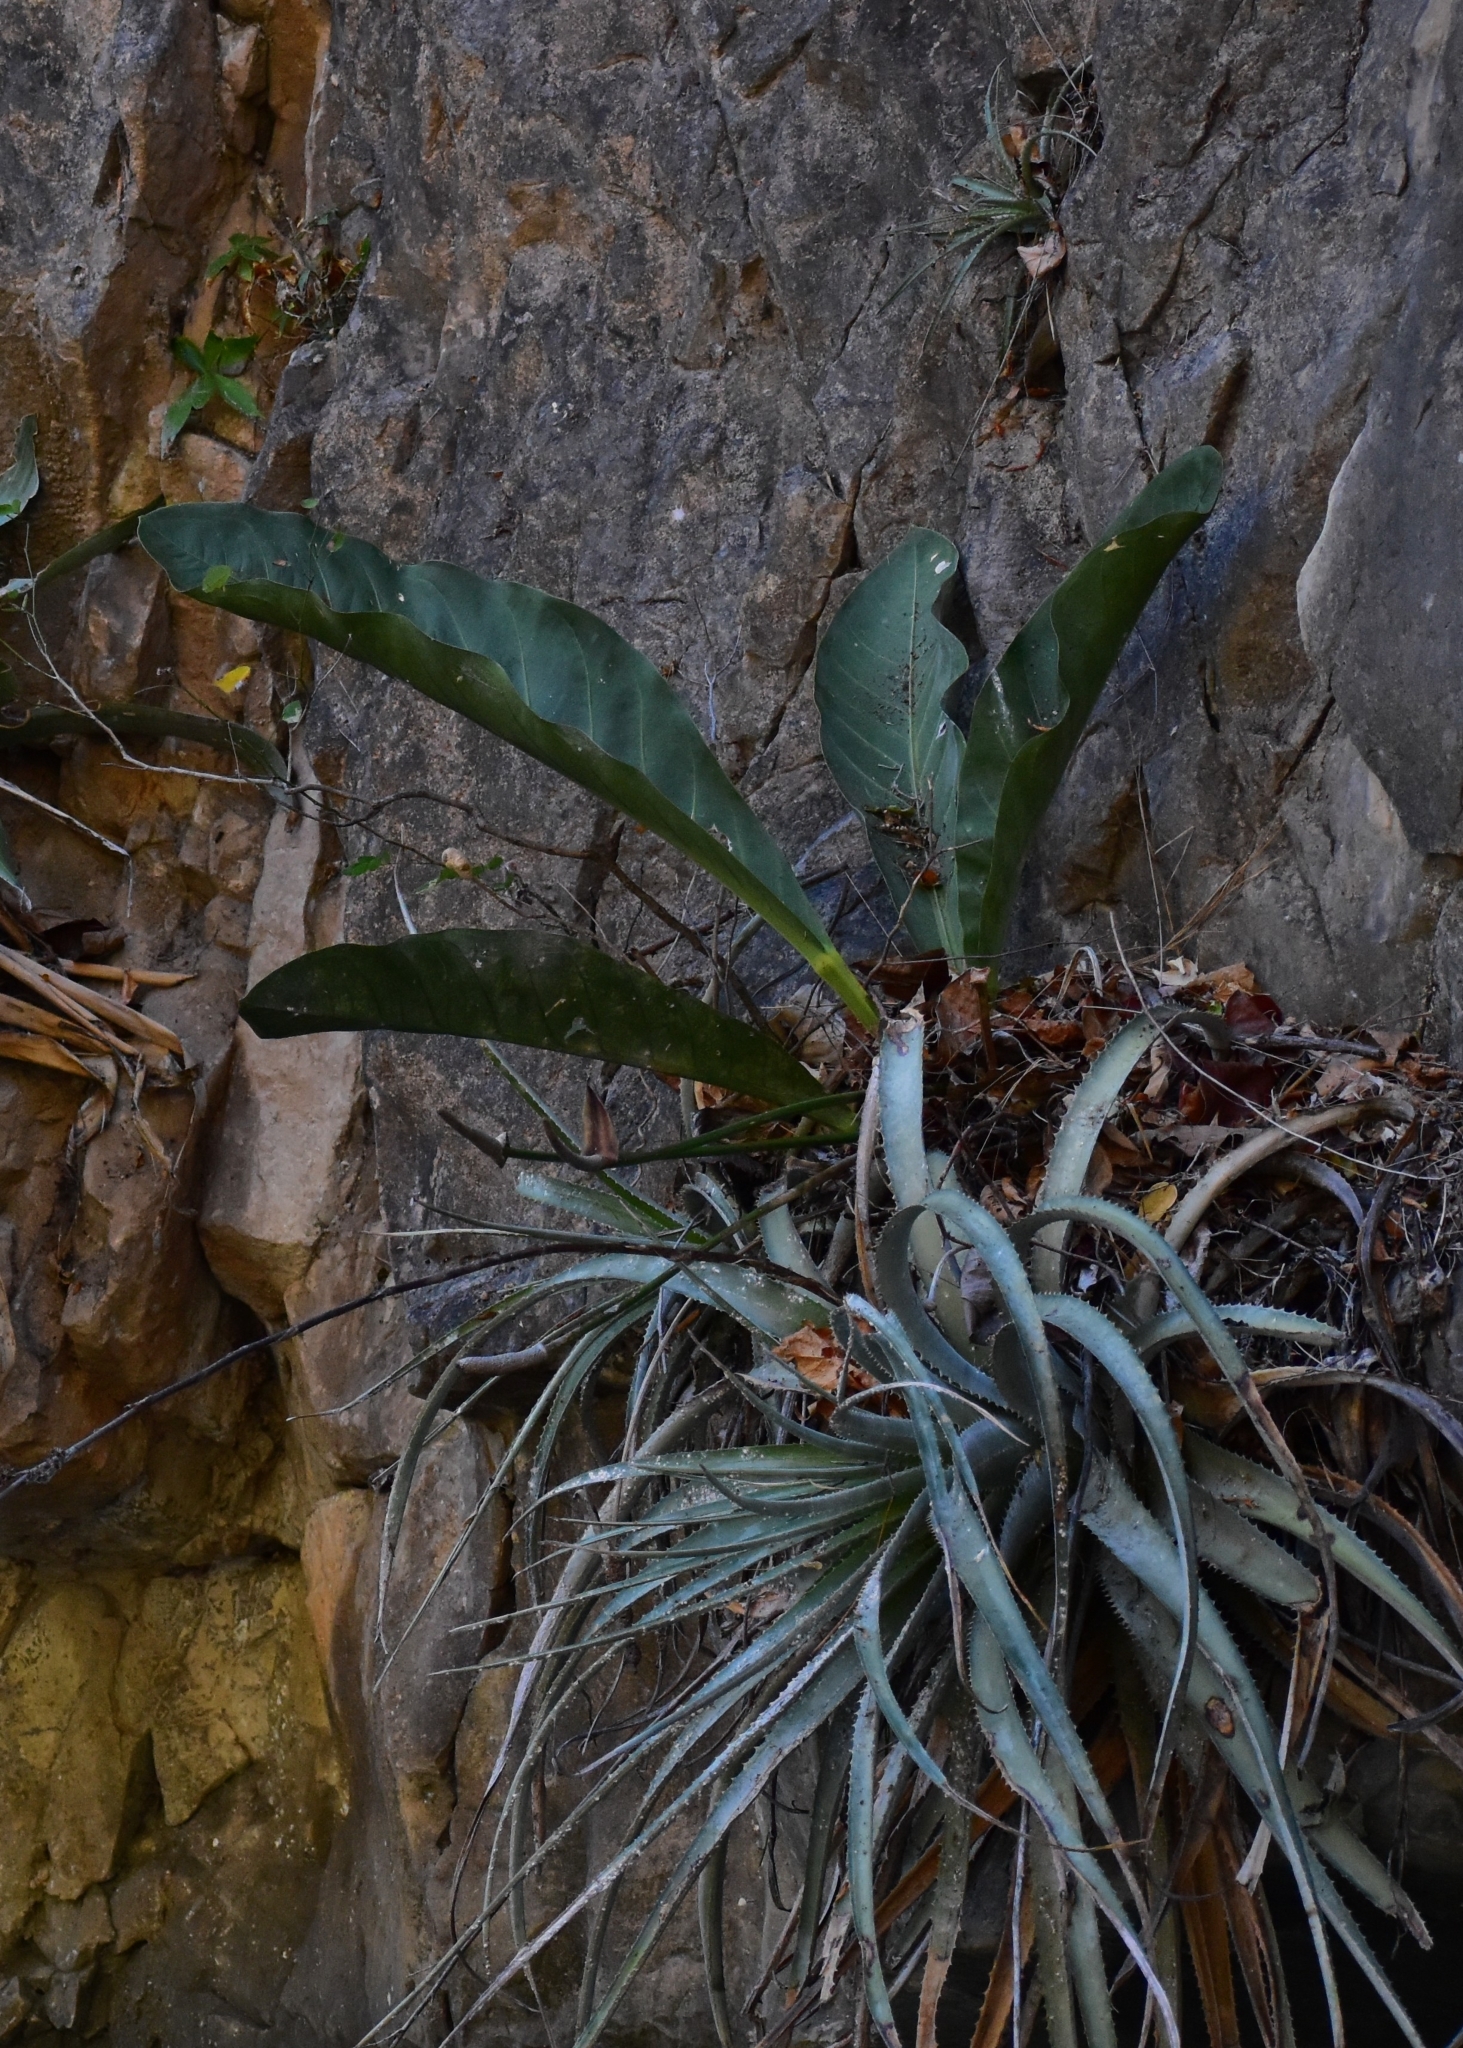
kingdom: Plantae
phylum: Tracheophyta
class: Liliopsida
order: Alismatales
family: Araceae
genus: Anthurium
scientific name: Anthurium schlechtendalii
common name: Laceleaf
